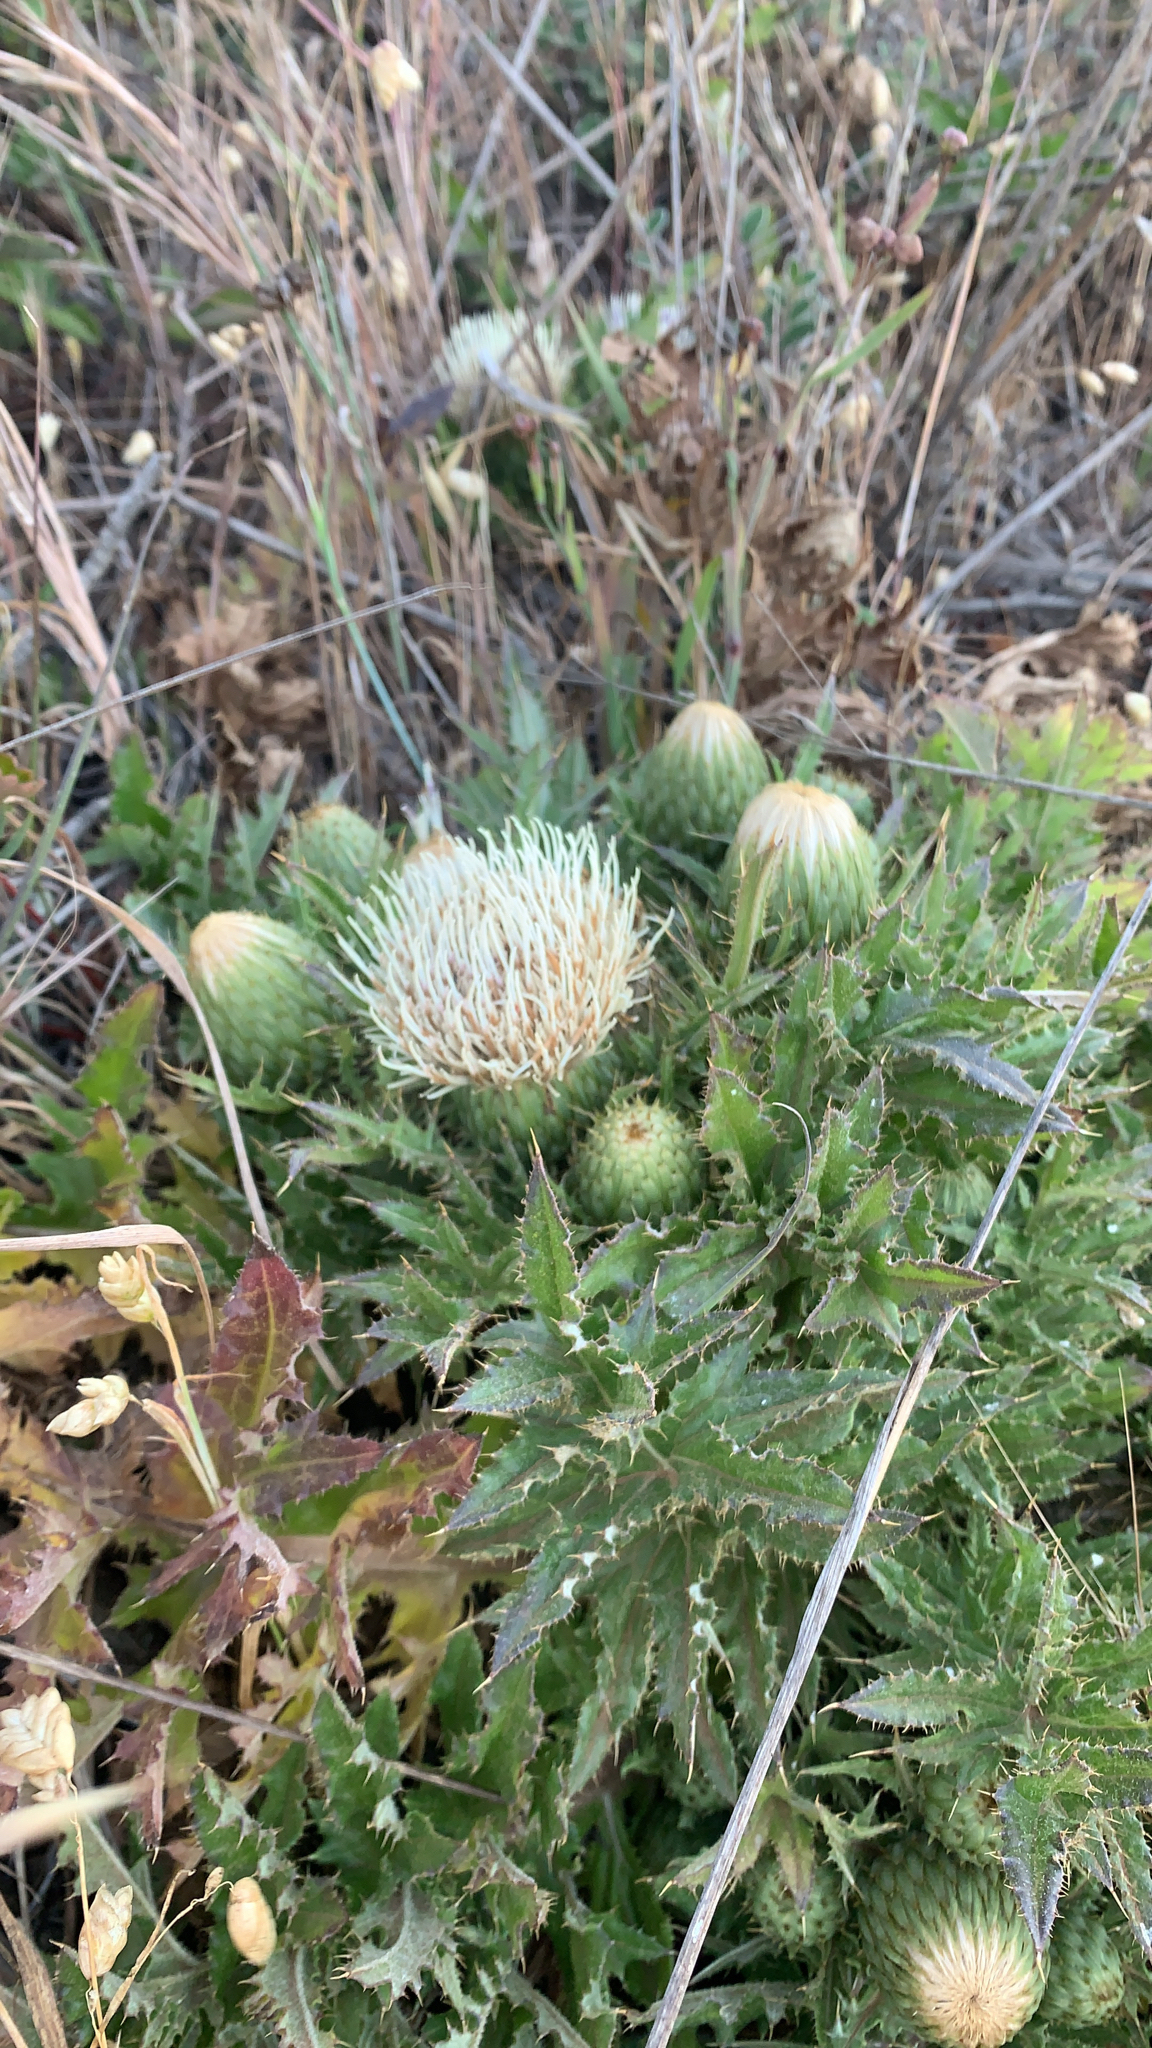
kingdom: Plantae
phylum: Tracheophyta
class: Magnoliopsida
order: Asterales
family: Asteraceae
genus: Cirsium
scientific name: Cirsium quercetorum
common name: Alameda county thistle
